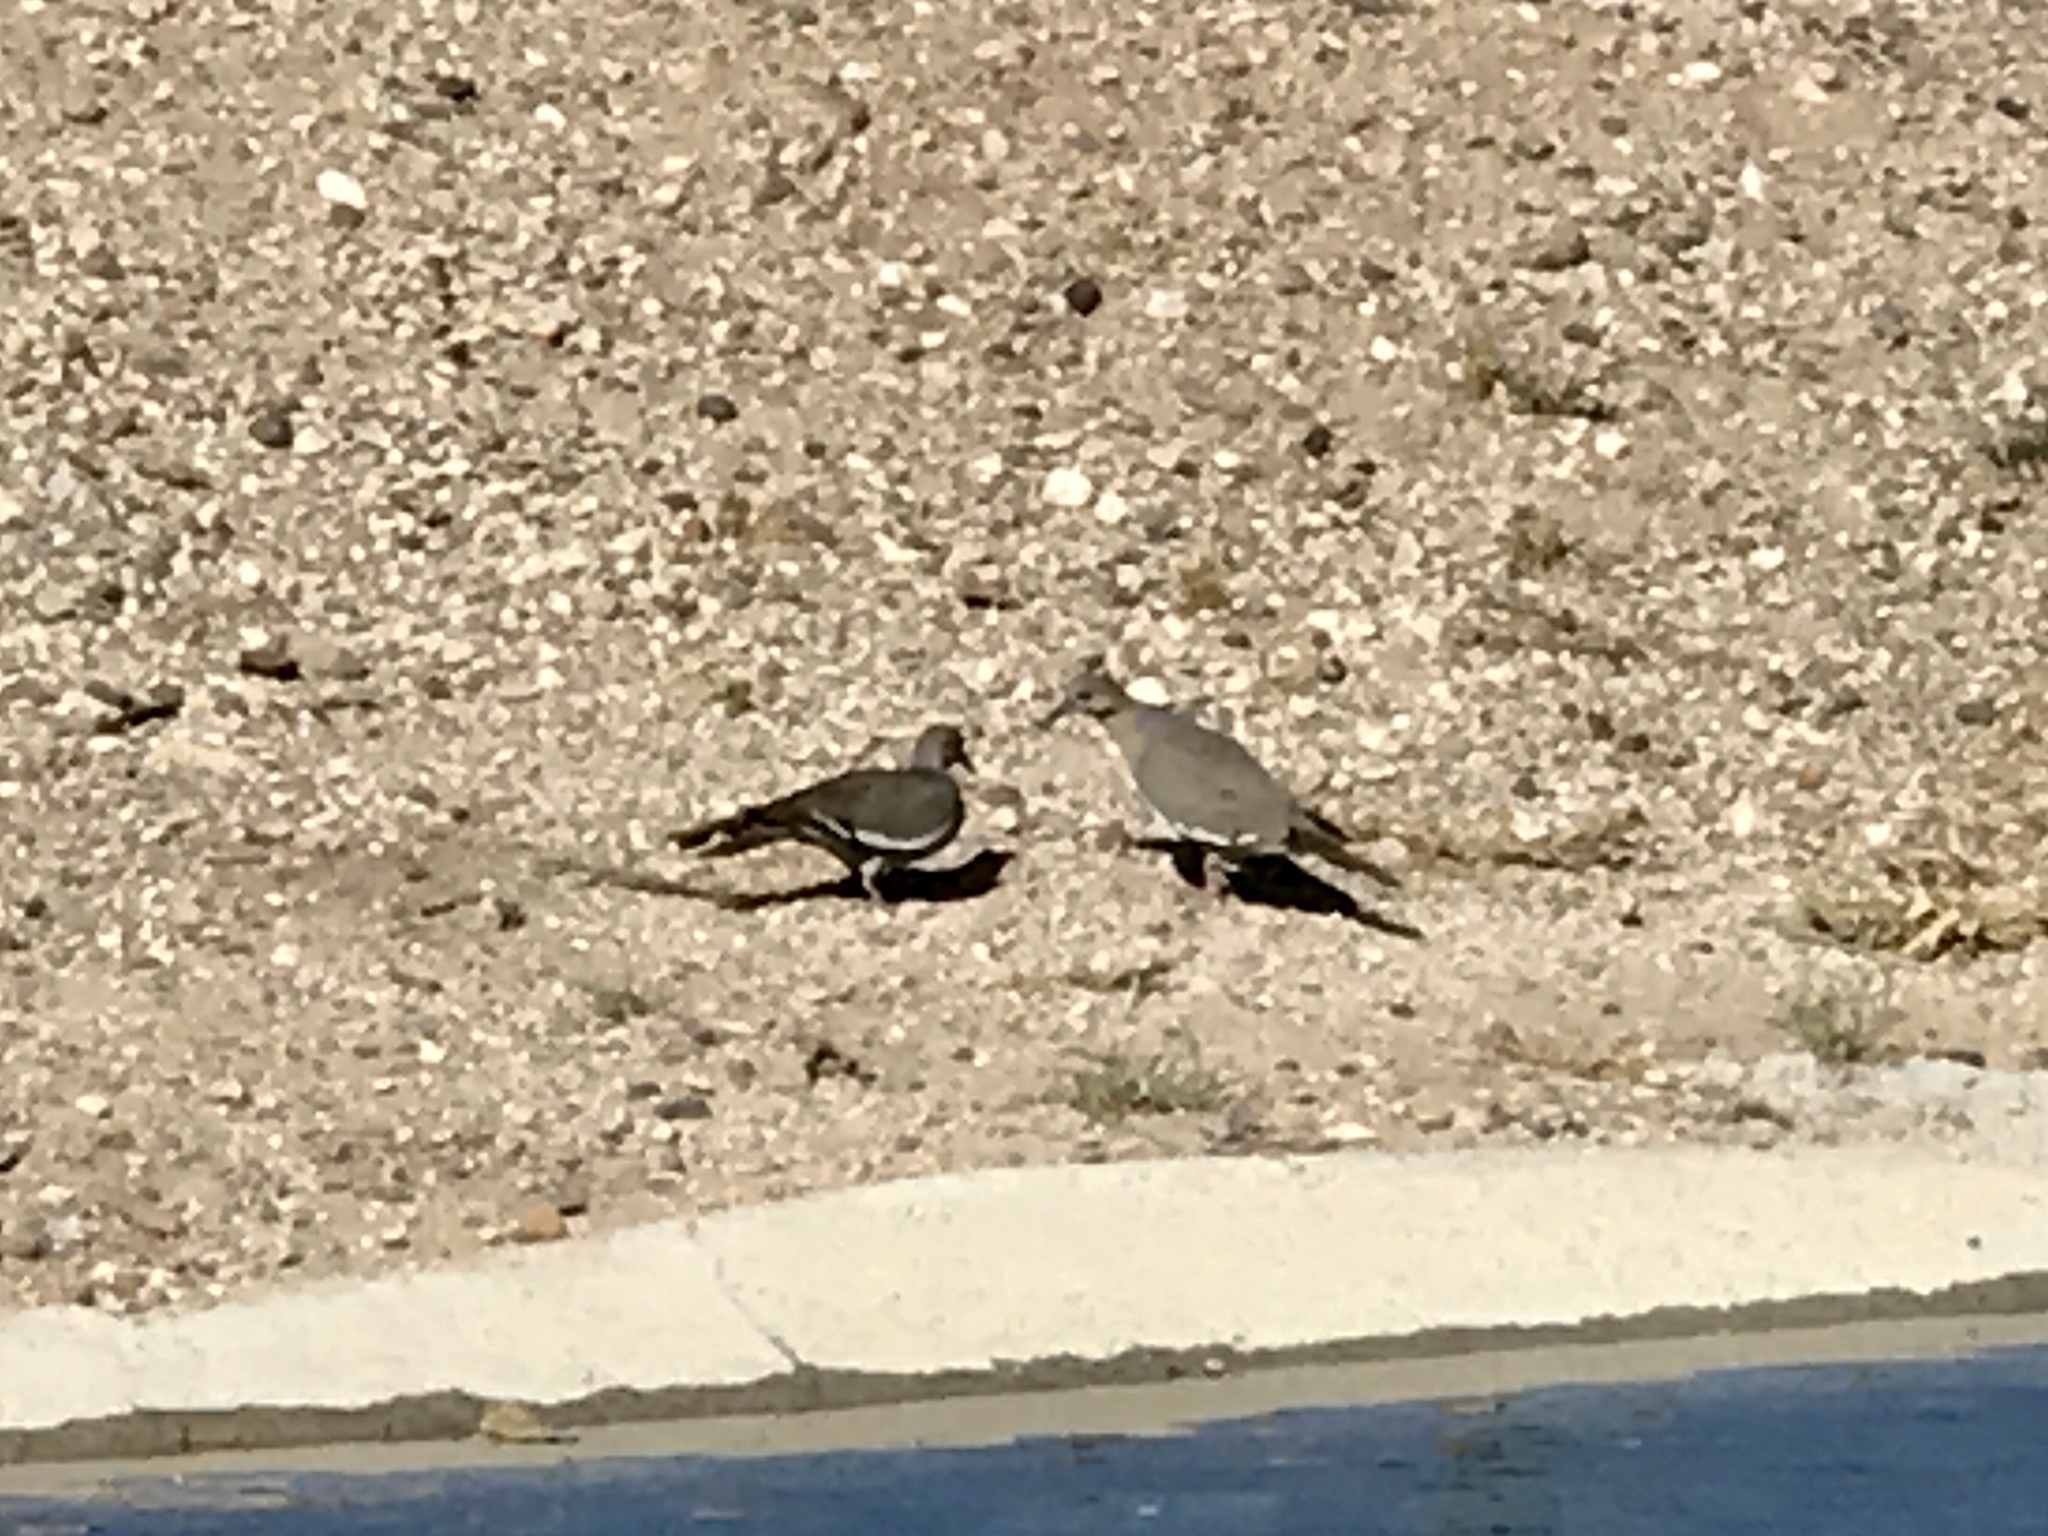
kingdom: Animalia
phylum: Chordata
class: Aves
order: Columbiformes
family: Columbidae
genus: Zenaida
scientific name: Zenaida asiatica
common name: White-winged dove
